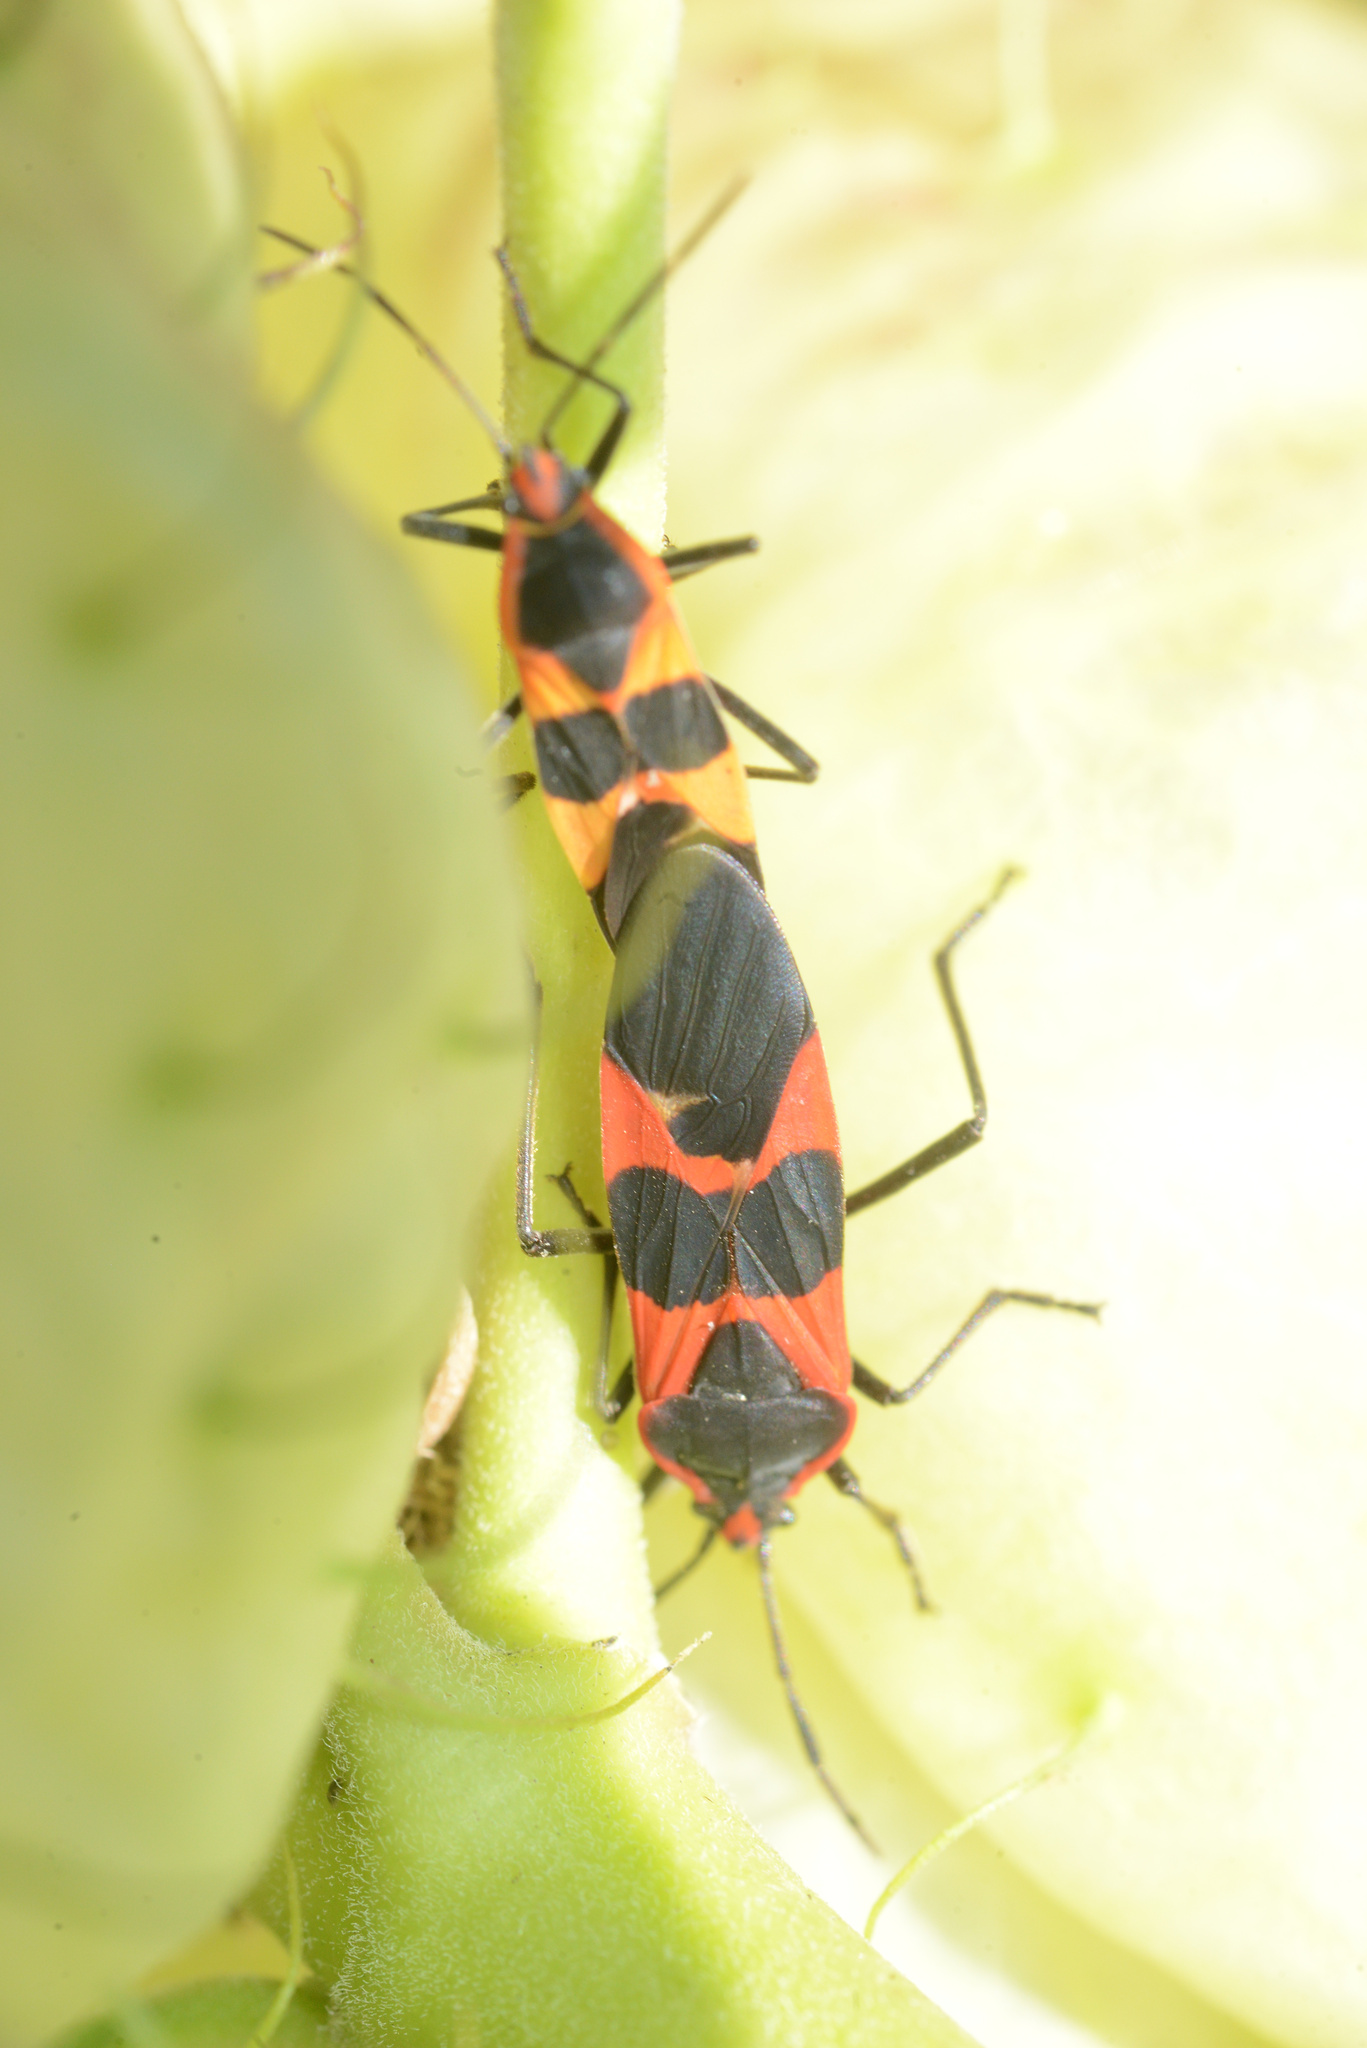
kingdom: Animalia
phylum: Arthropoda
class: Insecta
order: Hemiptera
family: Lygaeidae
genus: Oncopeltus
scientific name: Oncopeltus fasciatus
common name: Large milkweed bug
